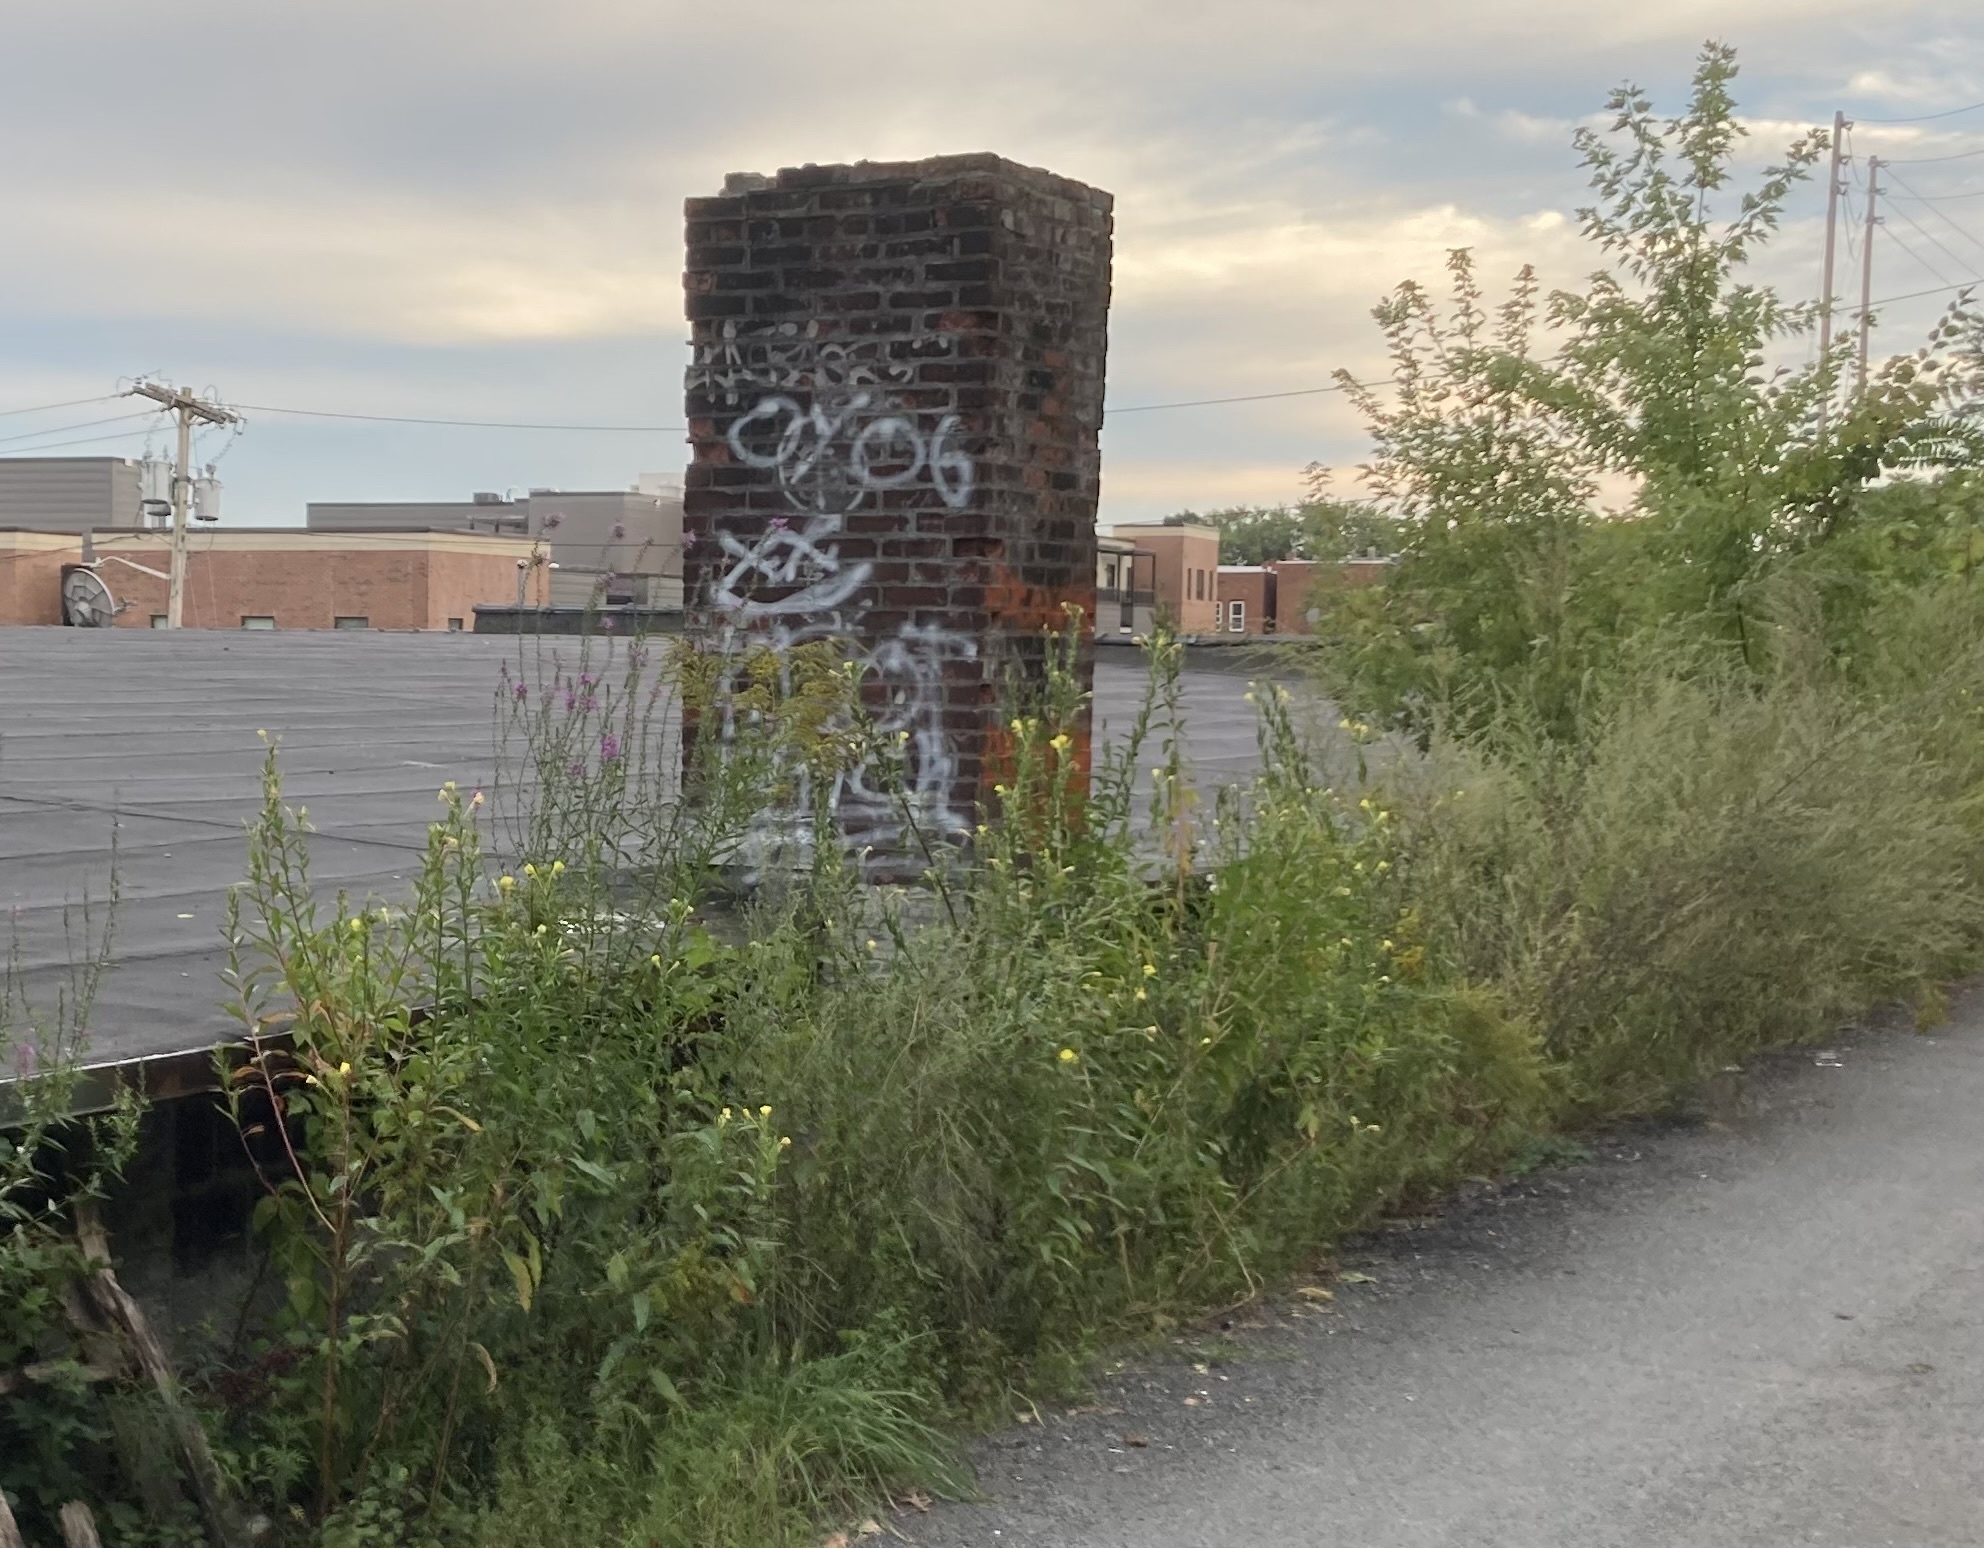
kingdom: Plantae
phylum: Tracheophyta
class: Magnoliopsida
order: Myrtales
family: Onagraceae
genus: Oenothera
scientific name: Oenothera biennis
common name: Common evening-primrose
